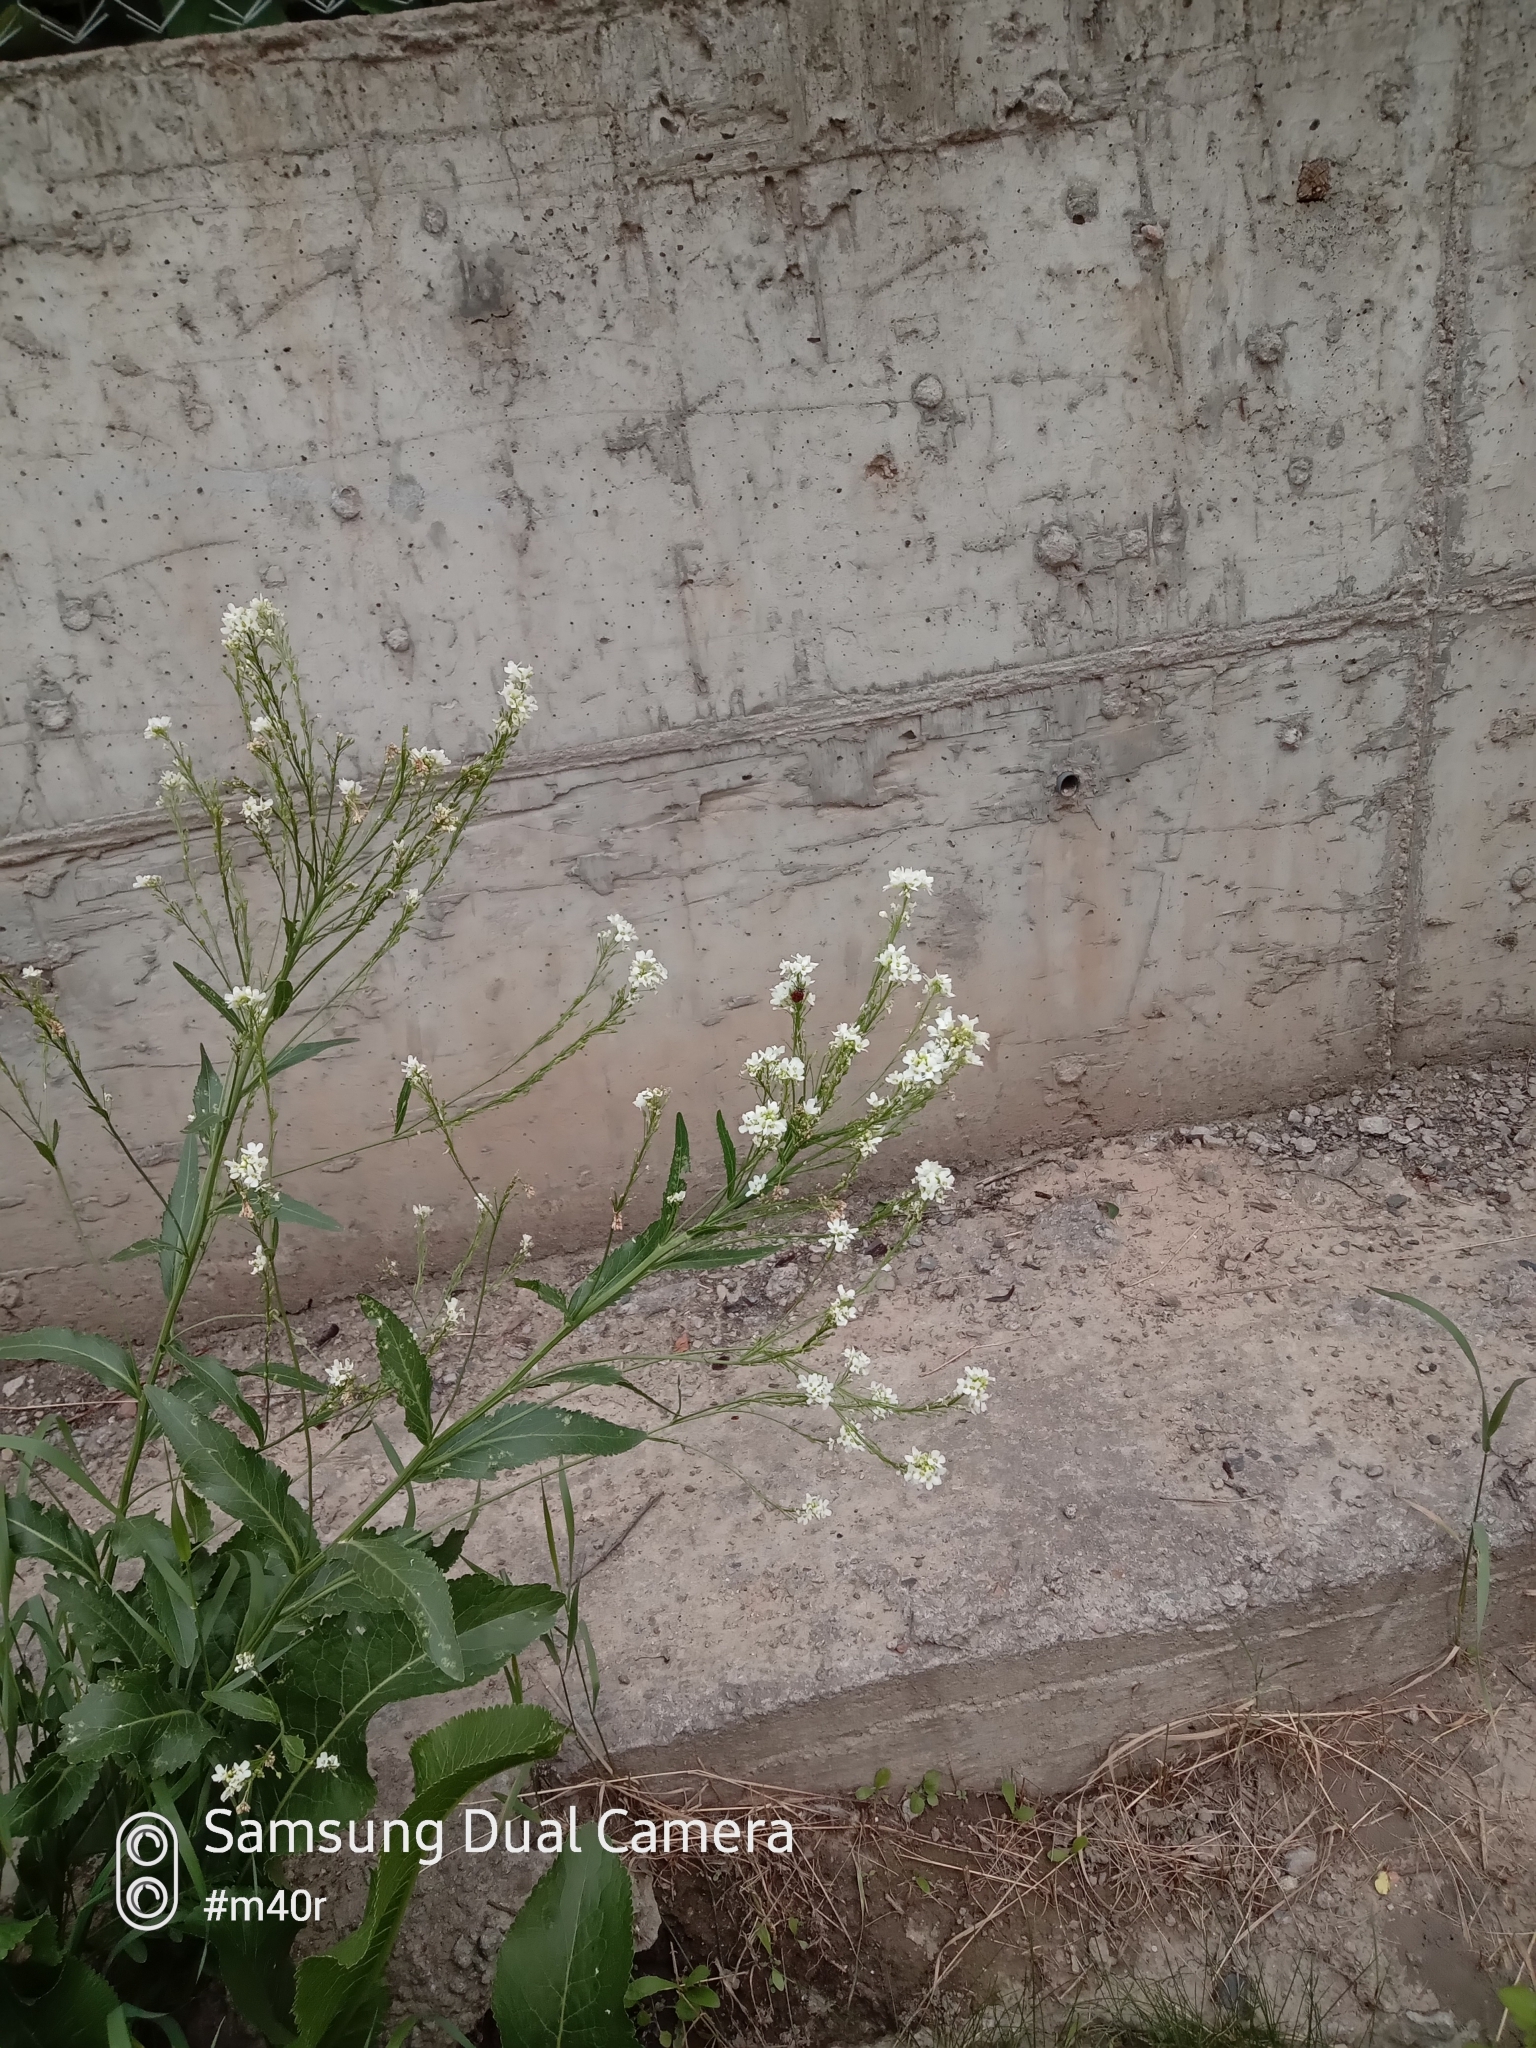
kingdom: Plantae
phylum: Tracheophyta
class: Magnoliopsida
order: Brassicales
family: Brassicaceae
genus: Armoracia
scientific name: Armoracia rusticana
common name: Horseradish
